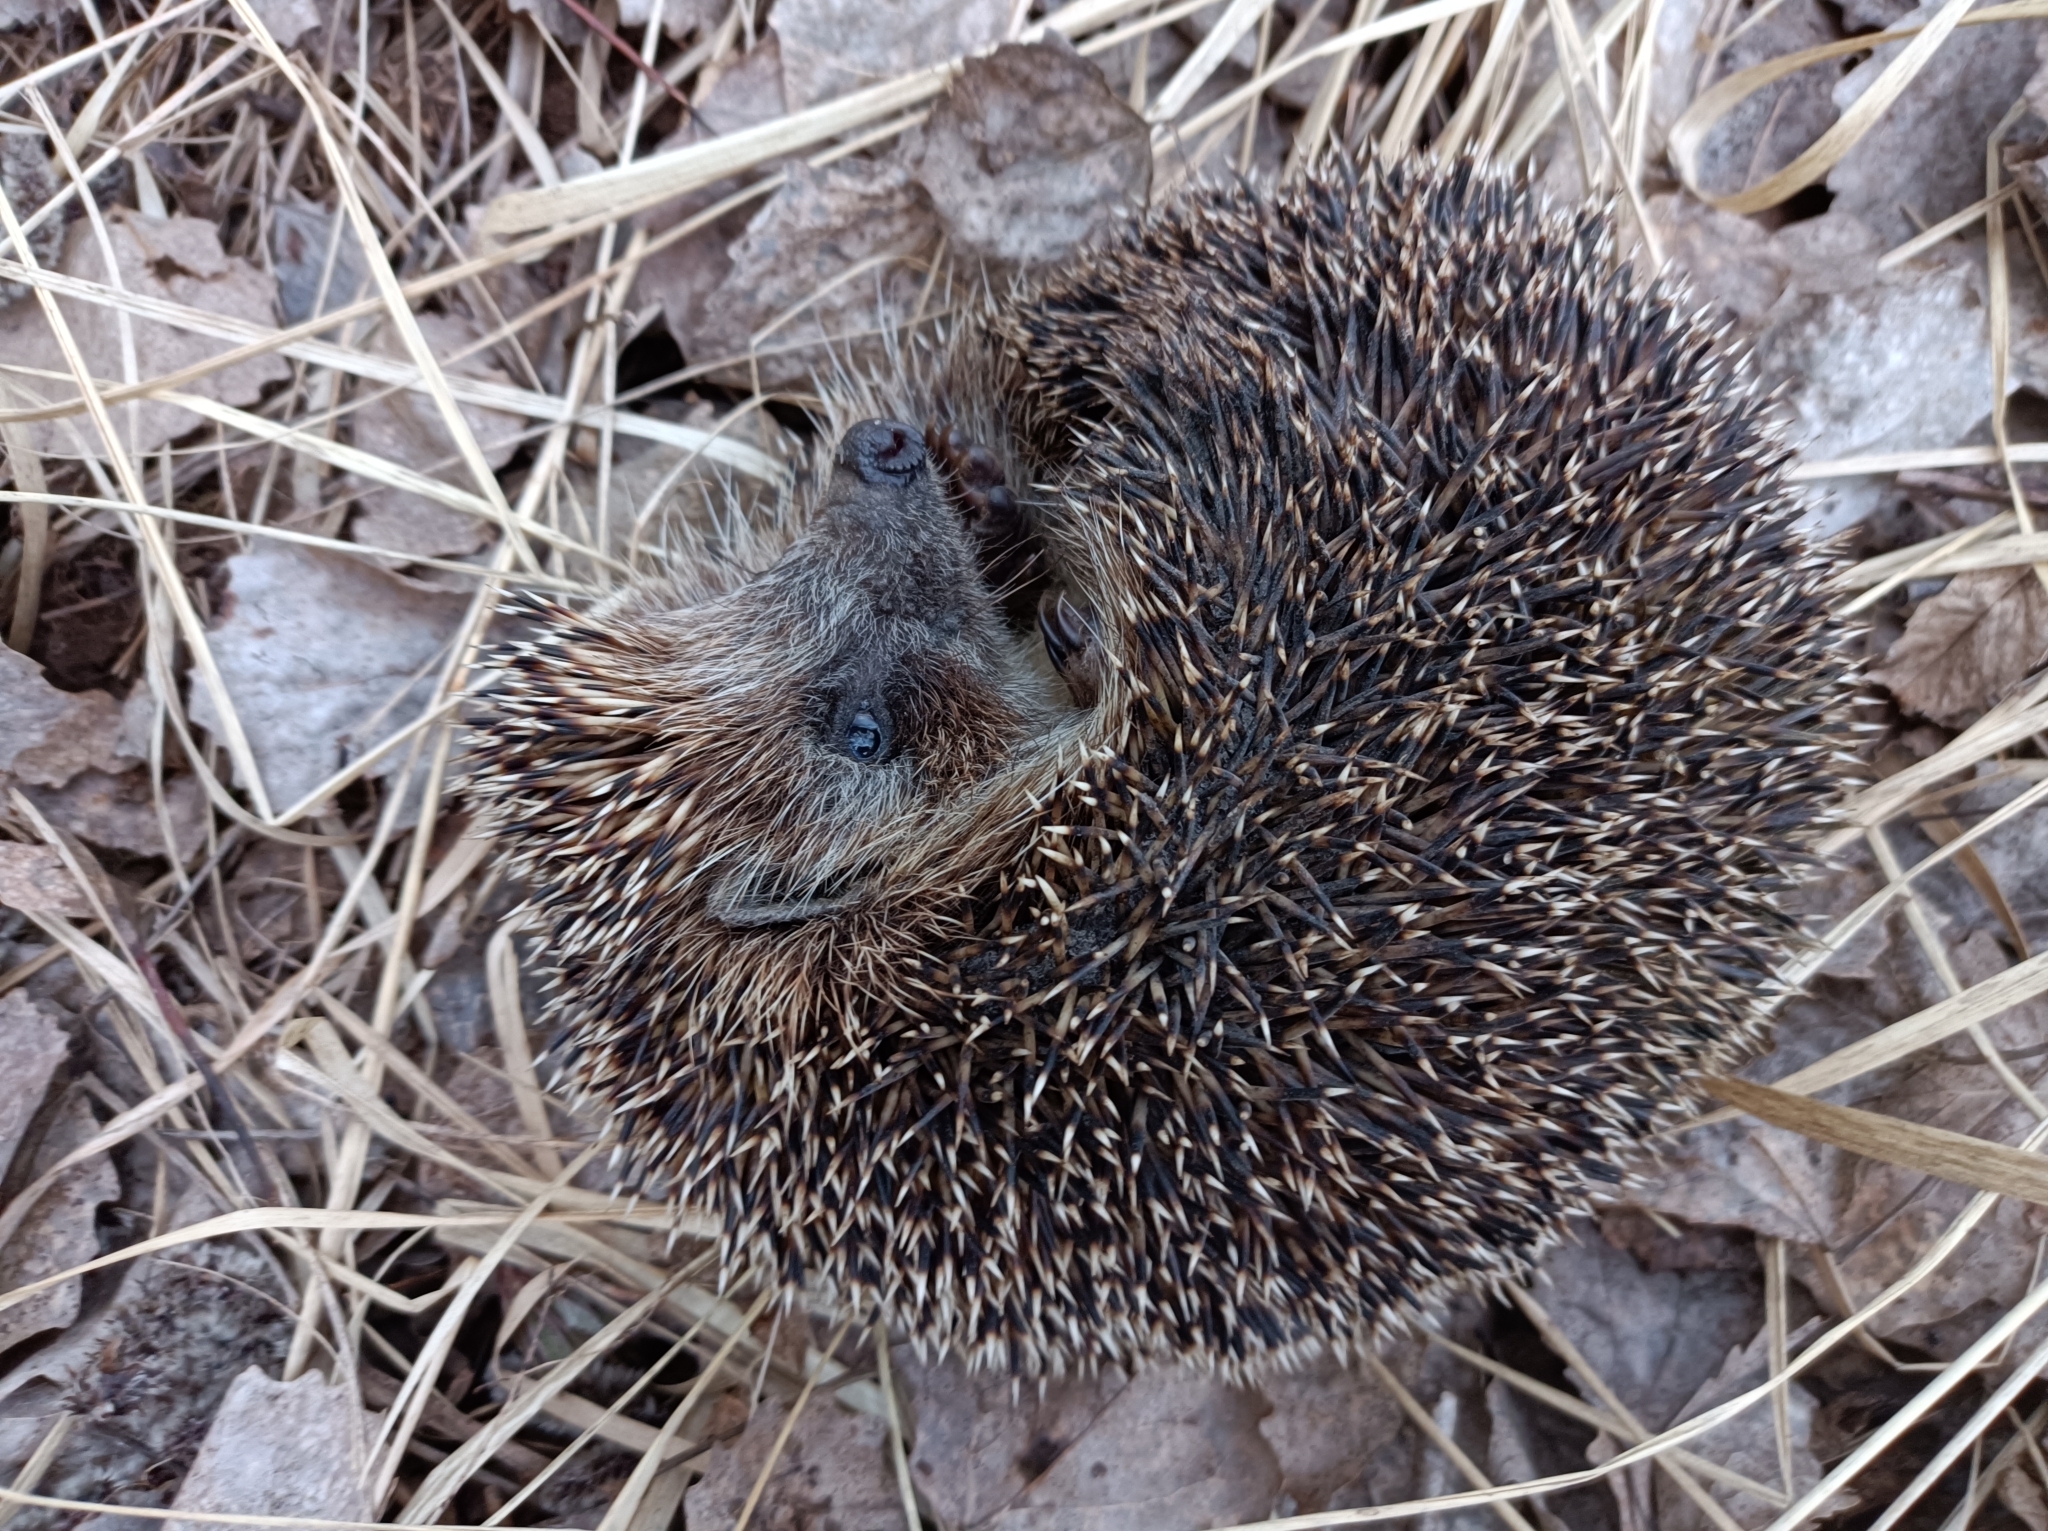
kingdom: Animalia
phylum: Chordata
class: Mammalia
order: Erinaceomorpha
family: Erinaceidae
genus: Erinaceus
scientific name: Erinaceus roumanicus
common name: Northern white-breasted hedgehog
